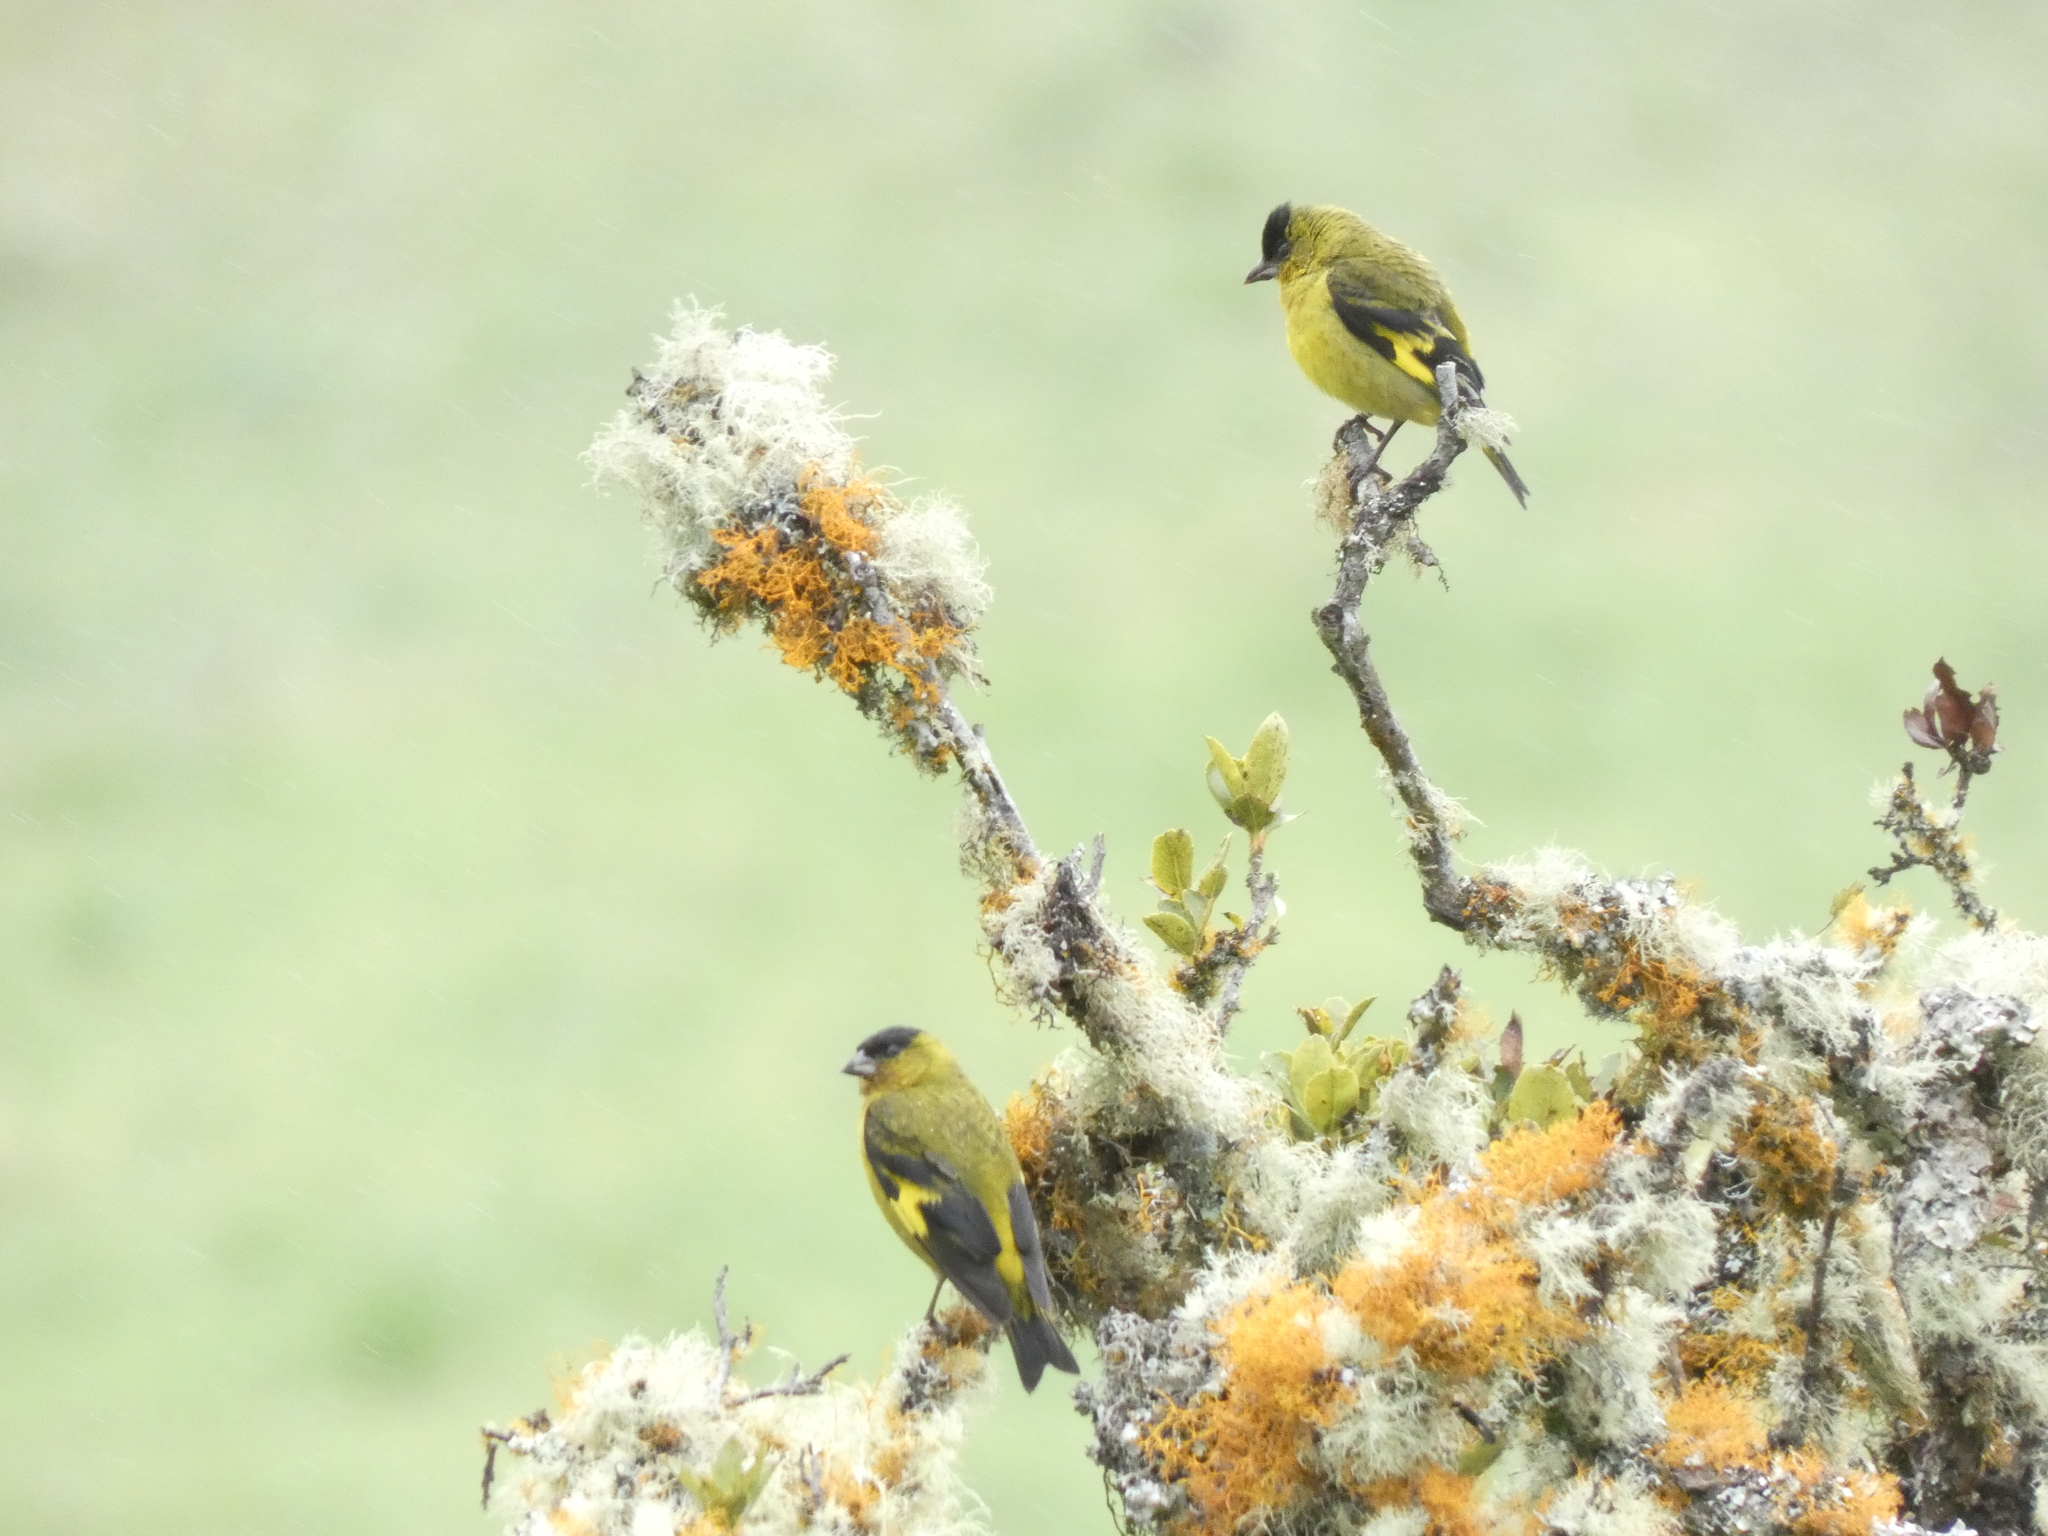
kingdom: Animalia
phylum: Chordata
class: Aves
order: Passeriformes
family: Fringillidae
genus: Spinus
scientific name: Spinus spinescens
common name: Andean siskin
